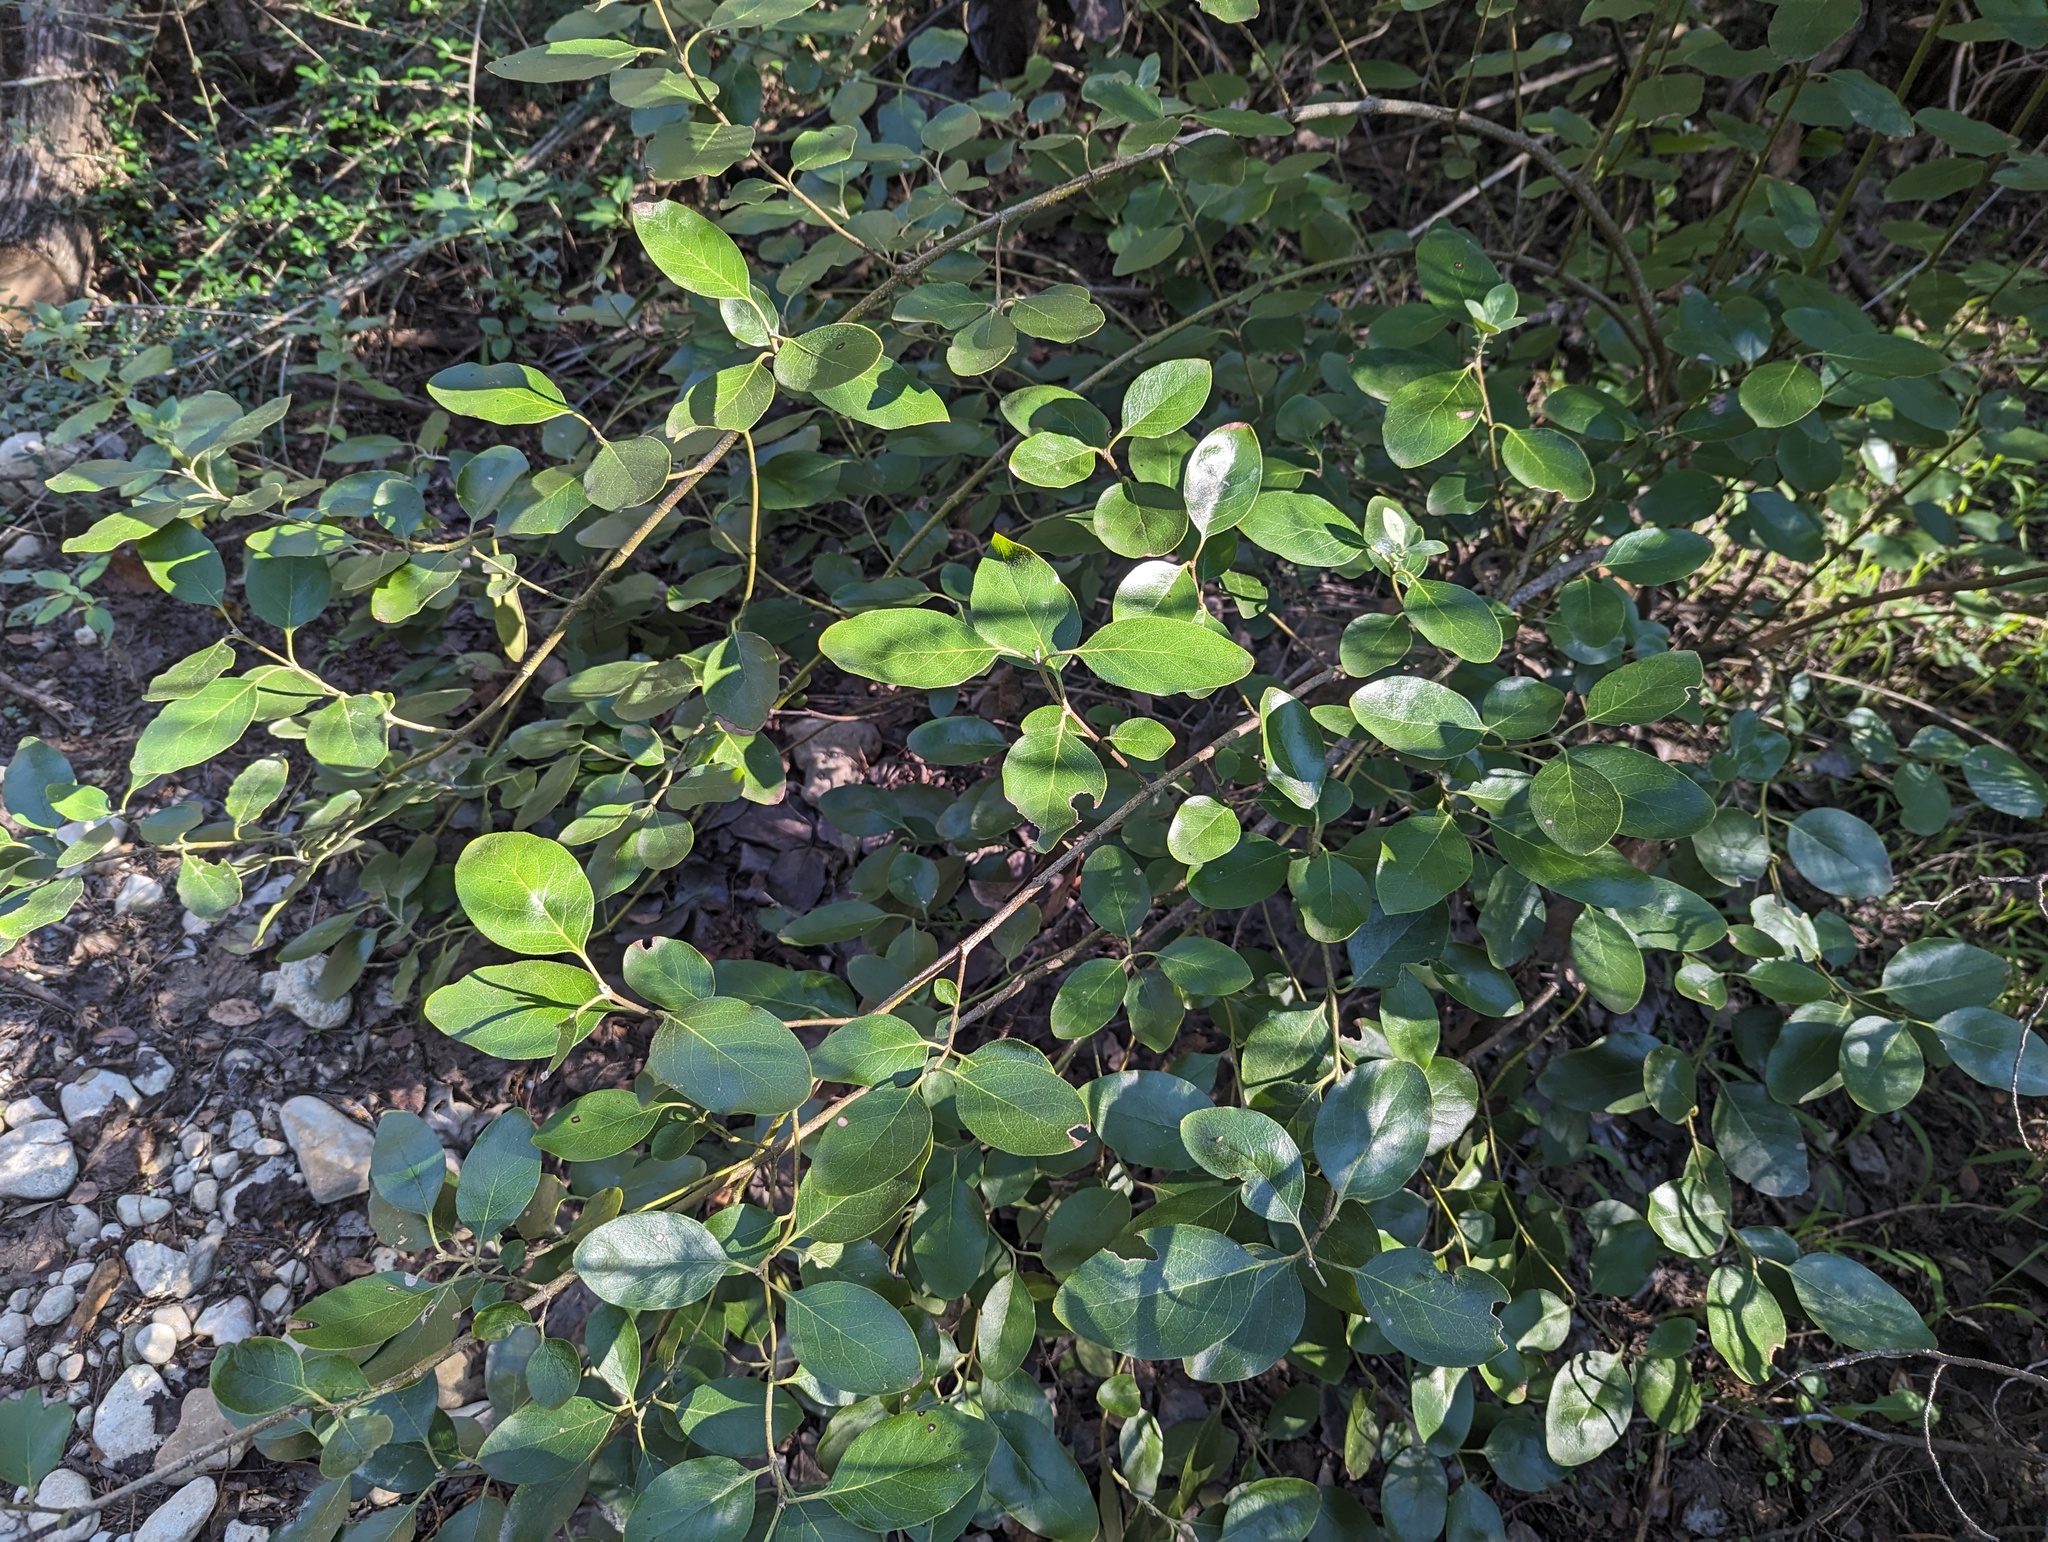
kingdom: Plantae
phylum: Tracheophyta
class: Magnoliopsida
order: Garryales
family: Garryaceae
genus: Garrya
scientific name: Garrya lindheimeri
